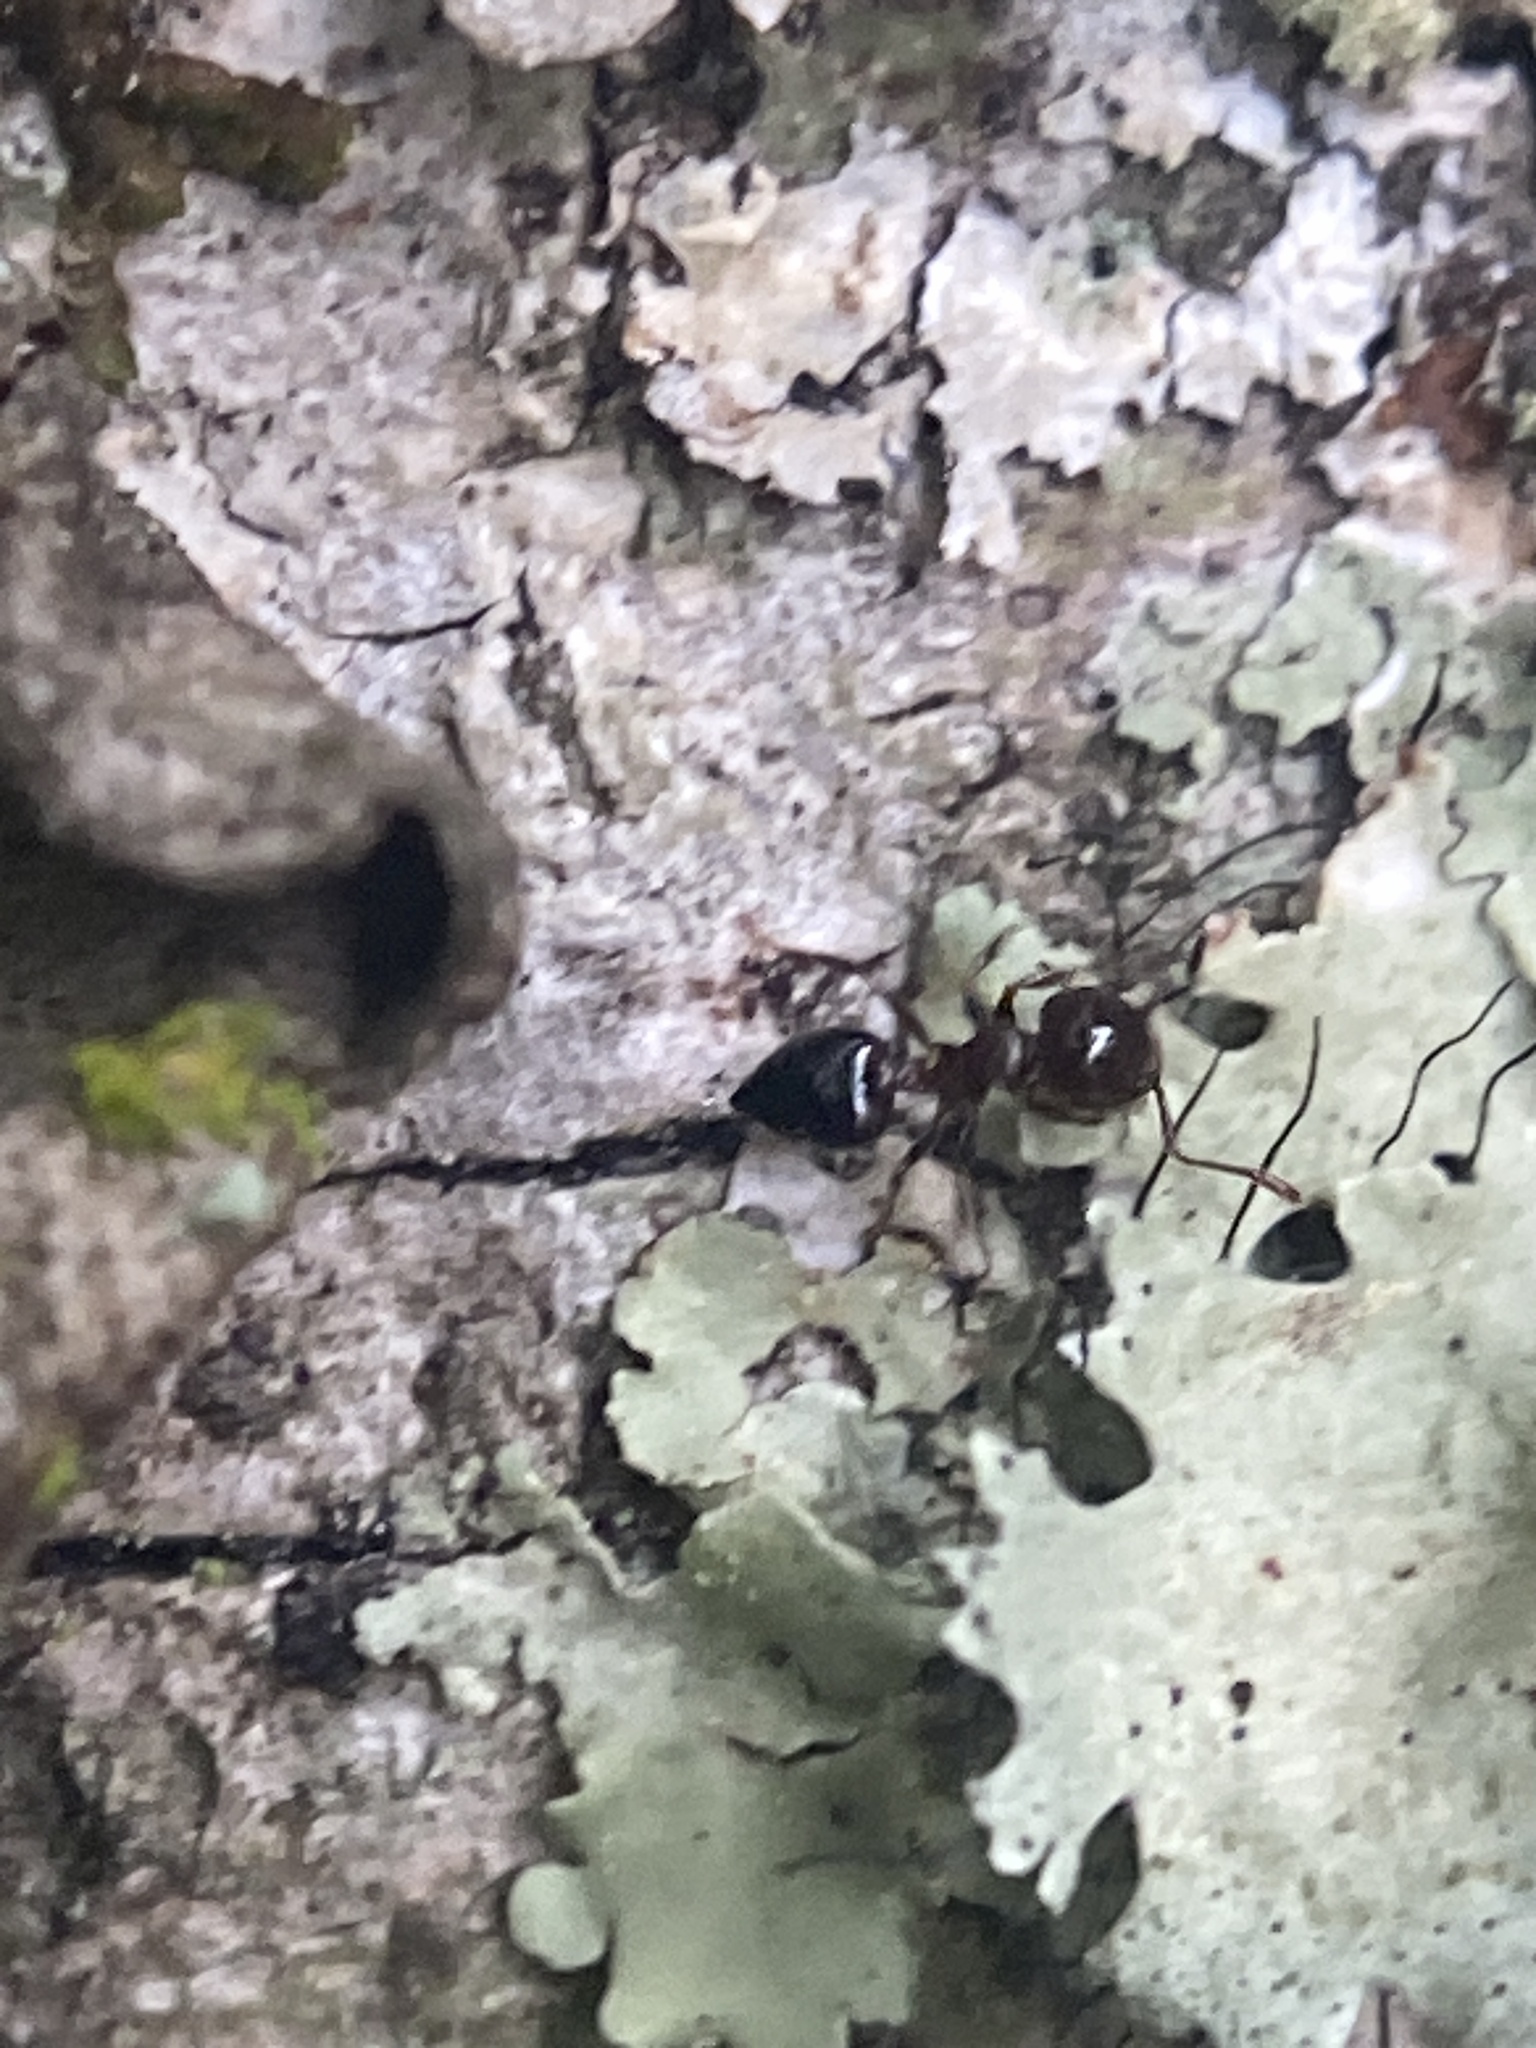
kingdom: Animalia
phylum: Arthropoda
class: Insecta
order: Hymenoptera
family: Formicidae
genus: Crematogaster
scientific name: Crematogaster ashmeadi
